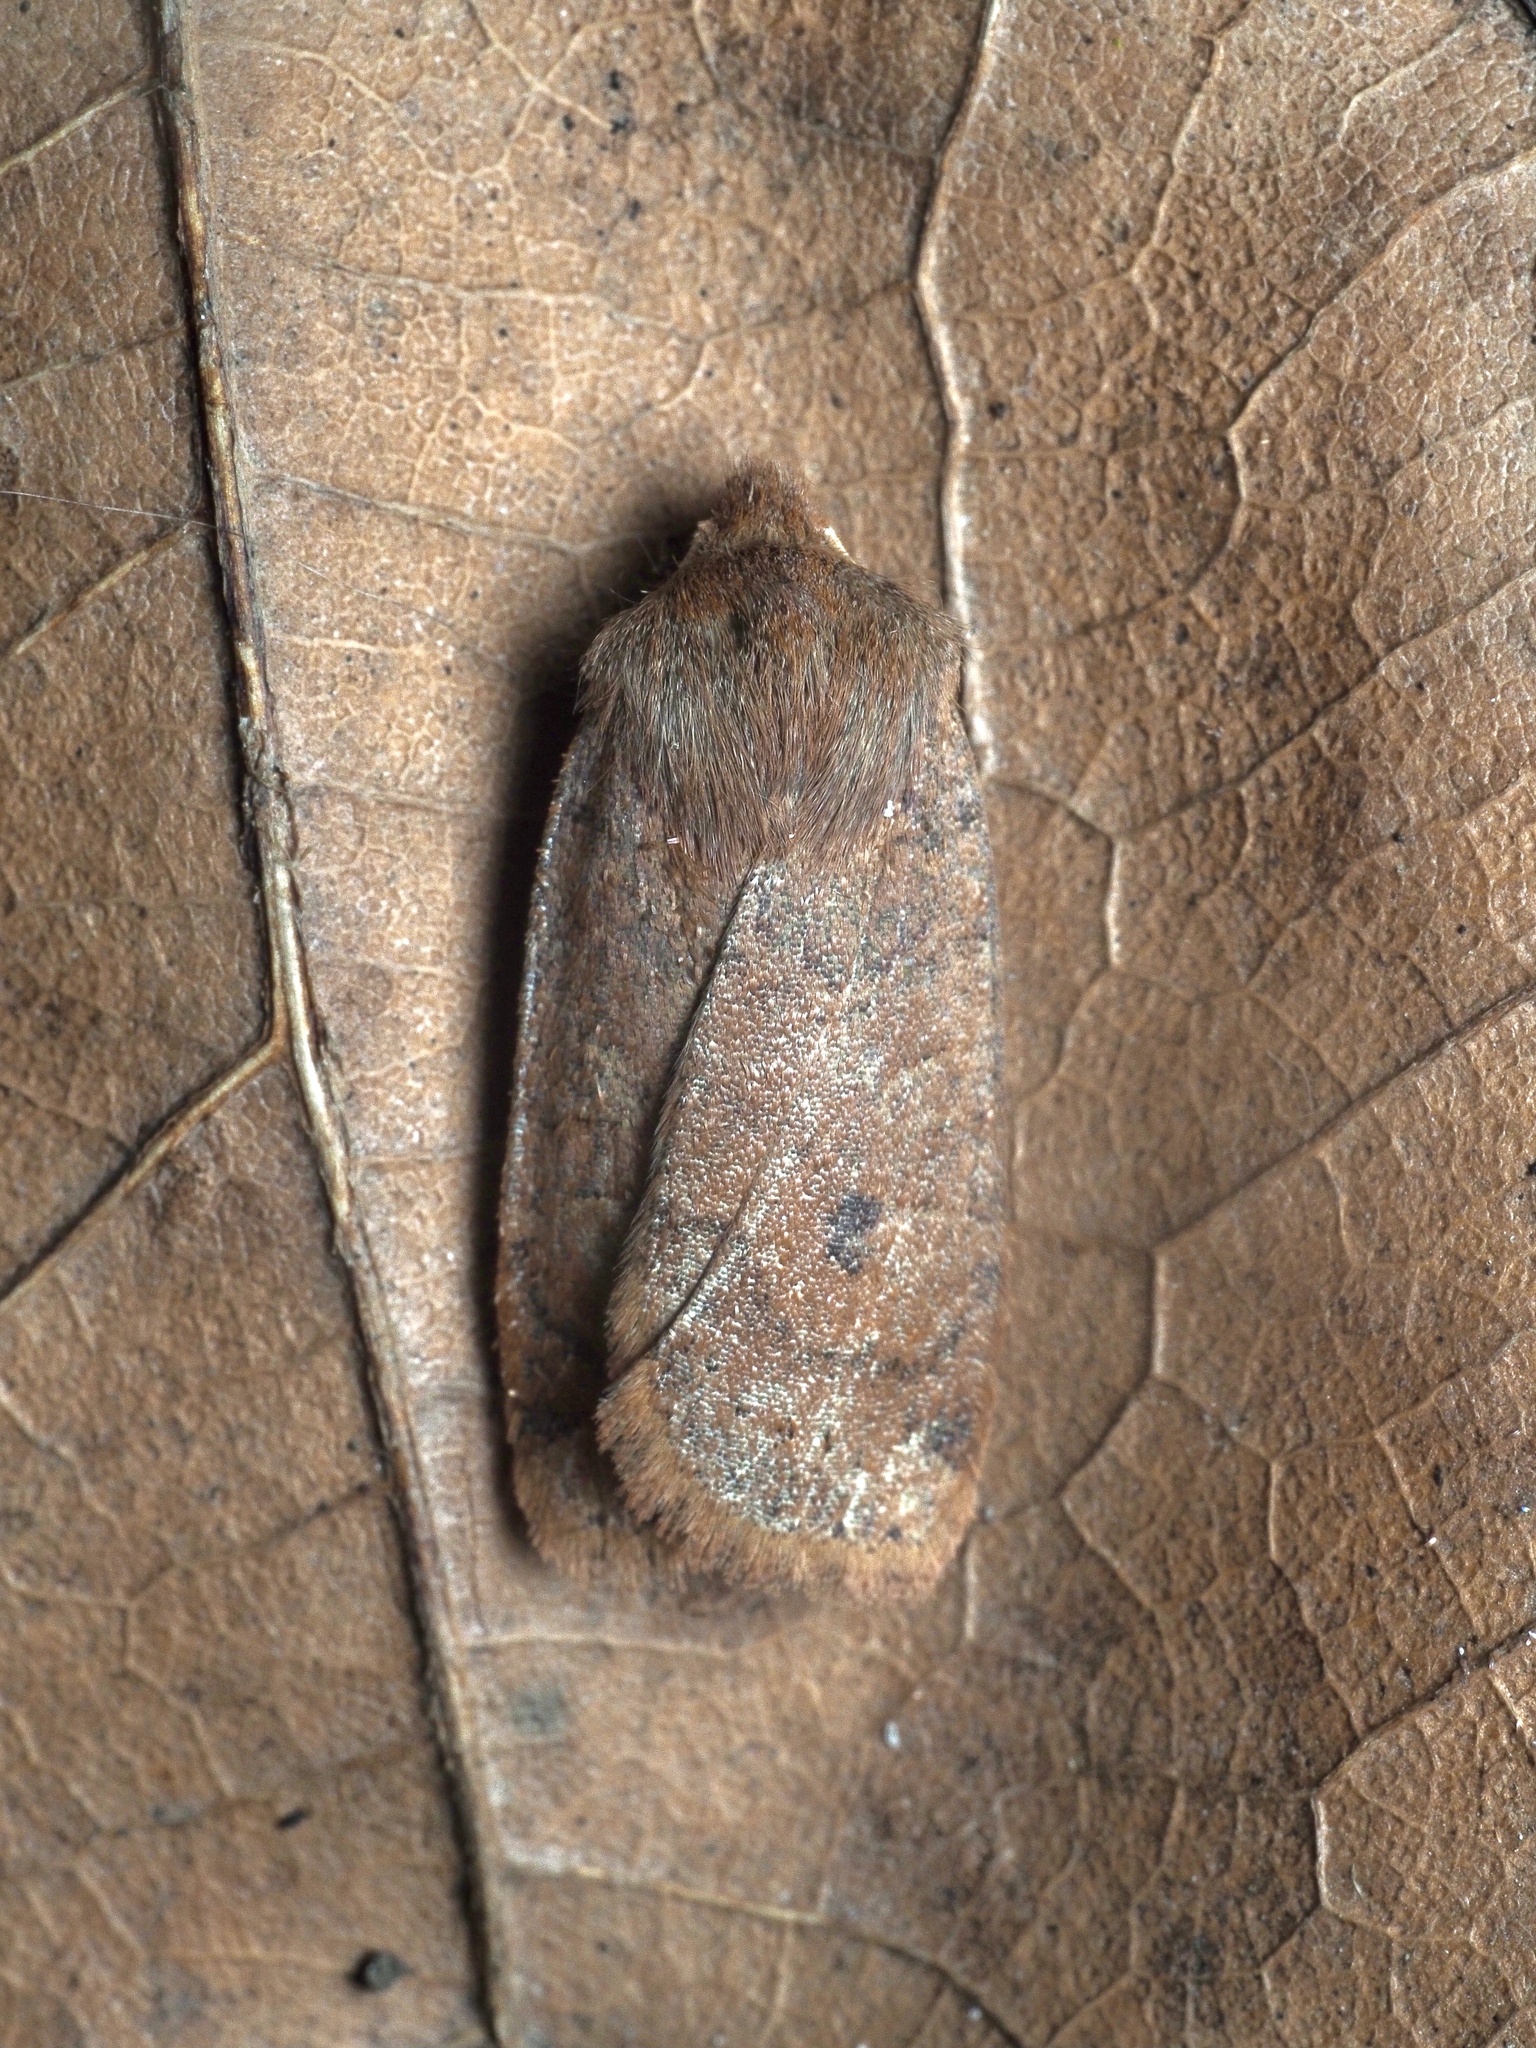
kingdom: Animalia
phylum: Arthropoda
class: Insecta
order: Lepidoptera
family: Noctuidae
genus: Conistra
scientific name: Conistra vaccinii
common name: Chestnut
